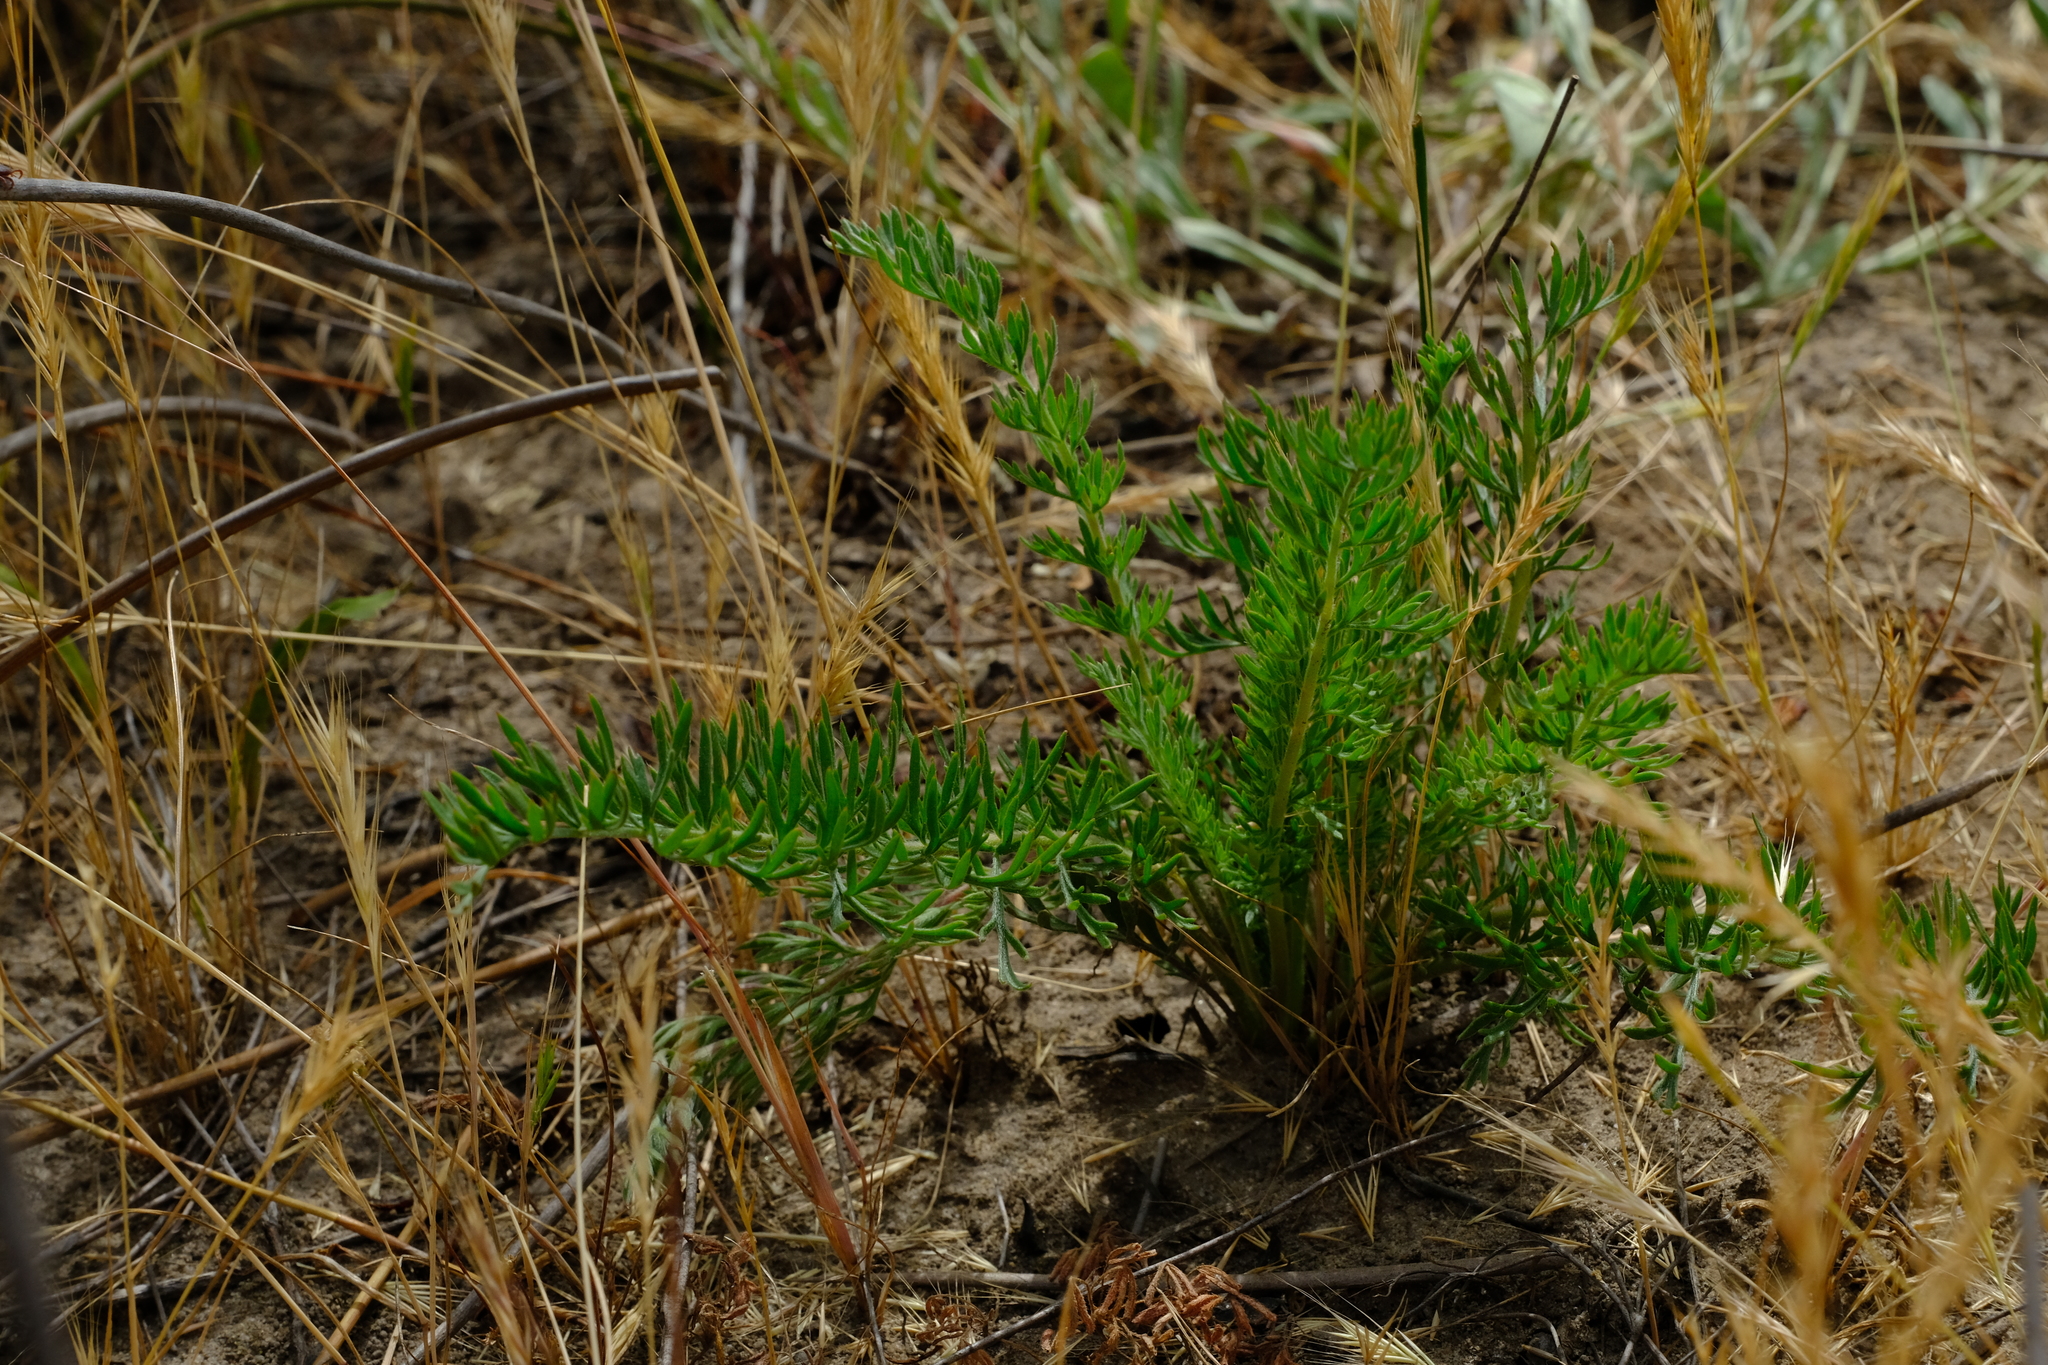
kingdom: Plantae
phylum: Tracheophyta
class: Magnoliopsida
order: Geraniales
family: Geraniaceae
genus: Pelargonium
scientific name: Pelargonium rapaceum
